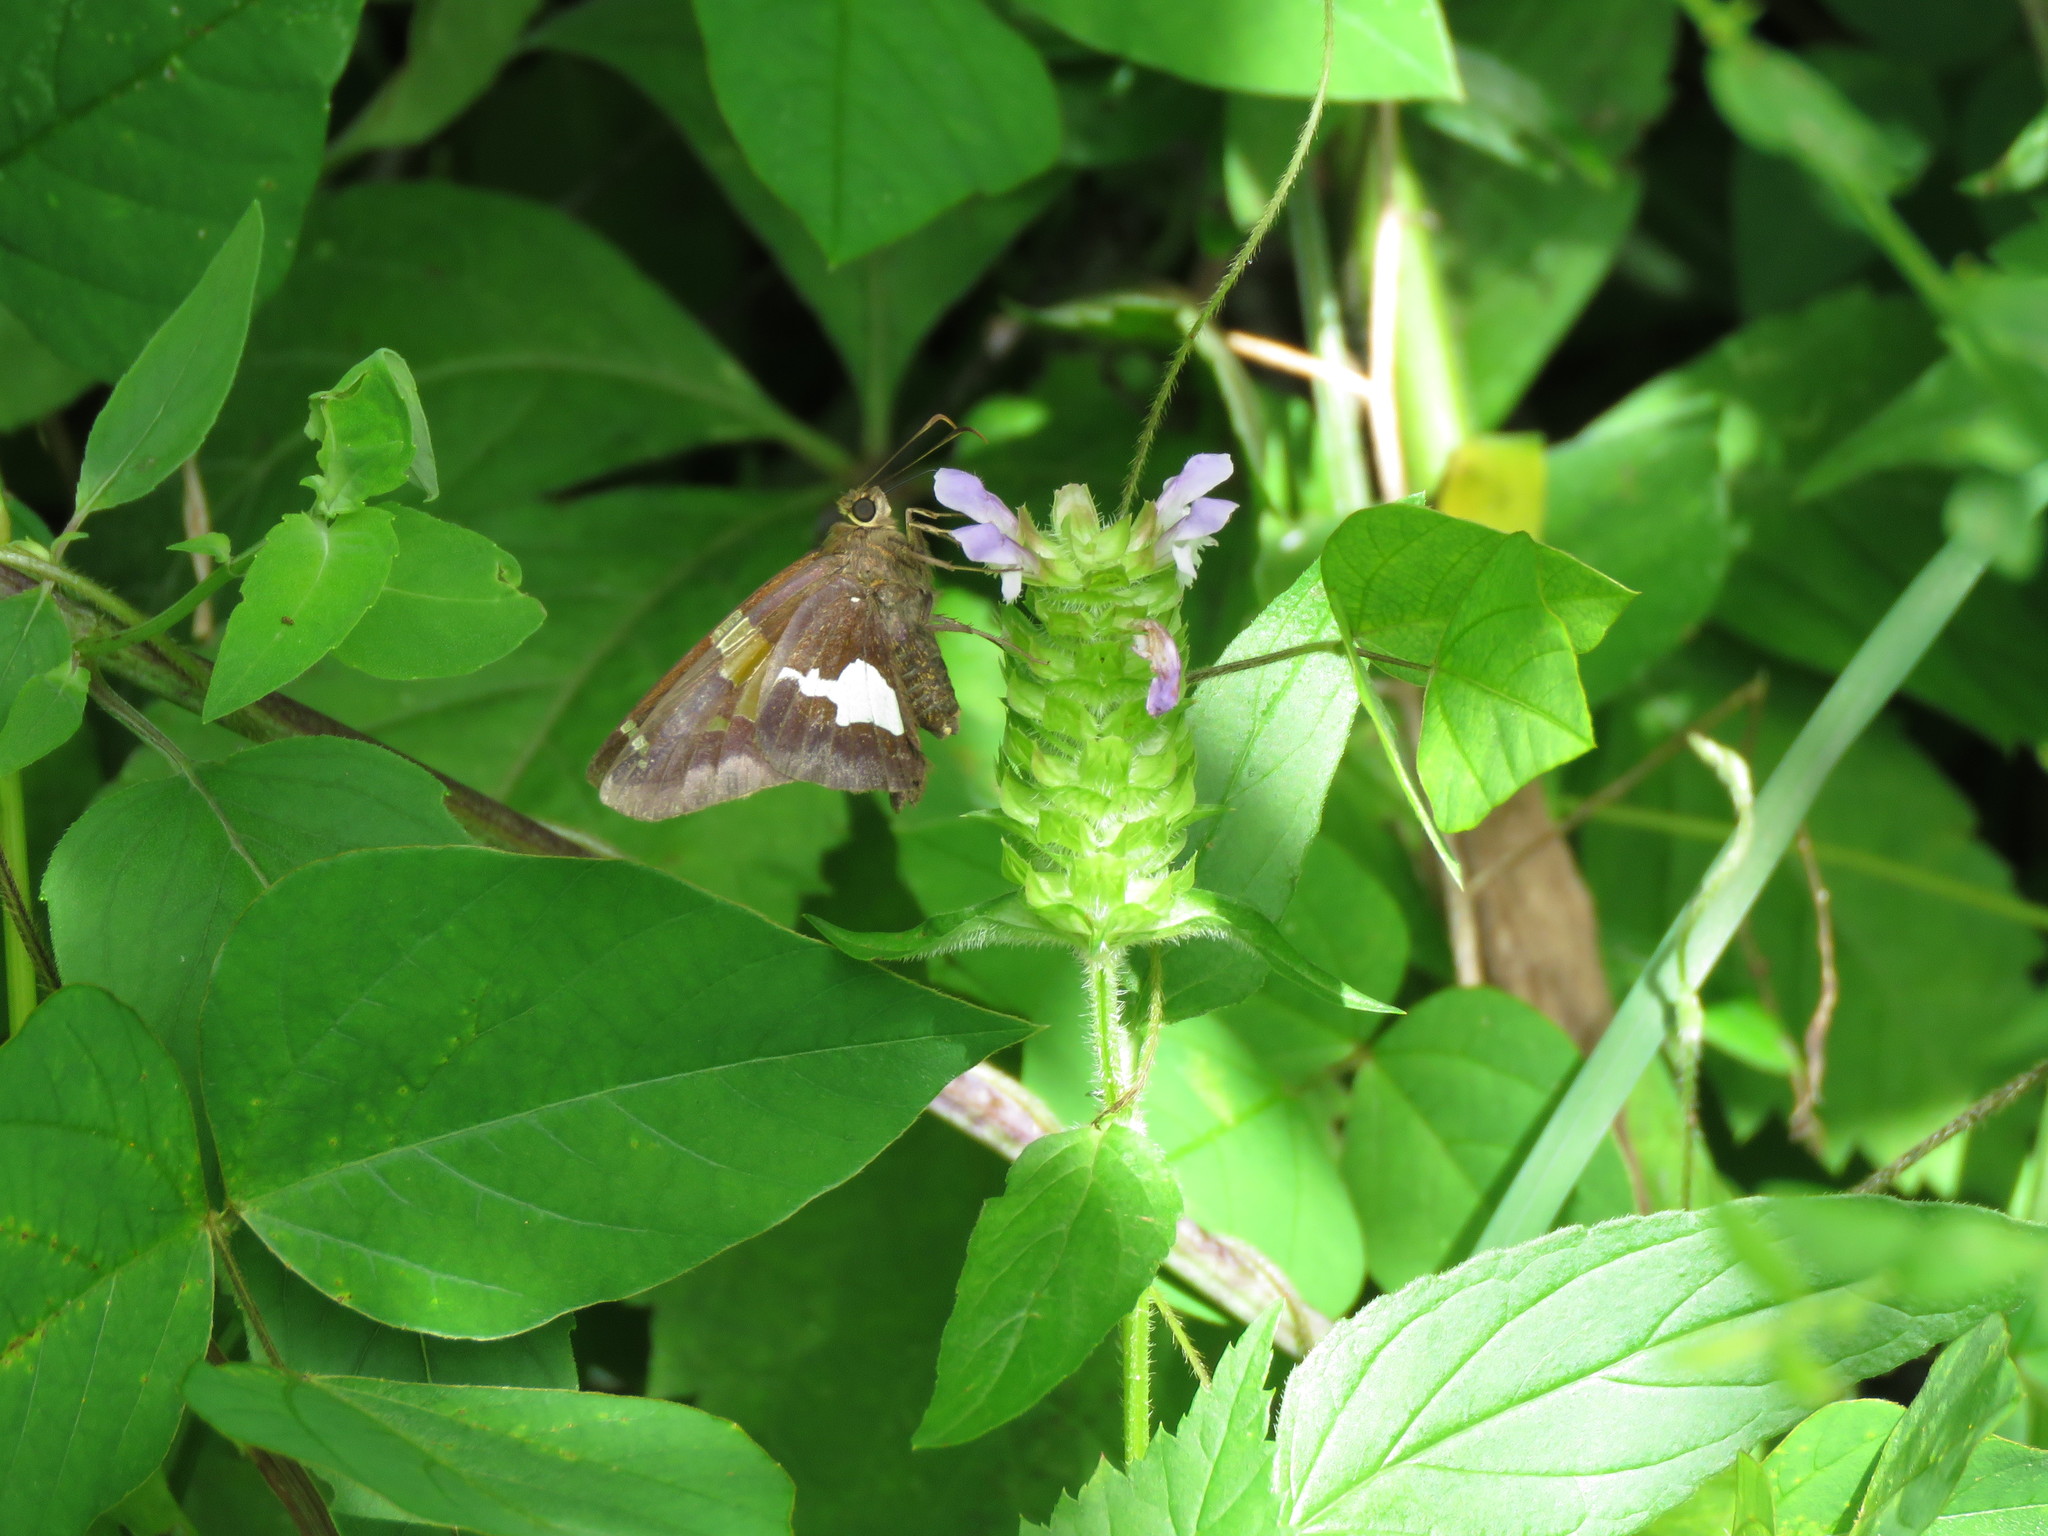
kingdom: Animalia
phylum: Arthropoda
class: Insecta
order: Lepidoptera
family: Hesperiidae
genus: Epargyreus
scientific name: Epargyreus clarus
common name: Silver-spotted skipper
